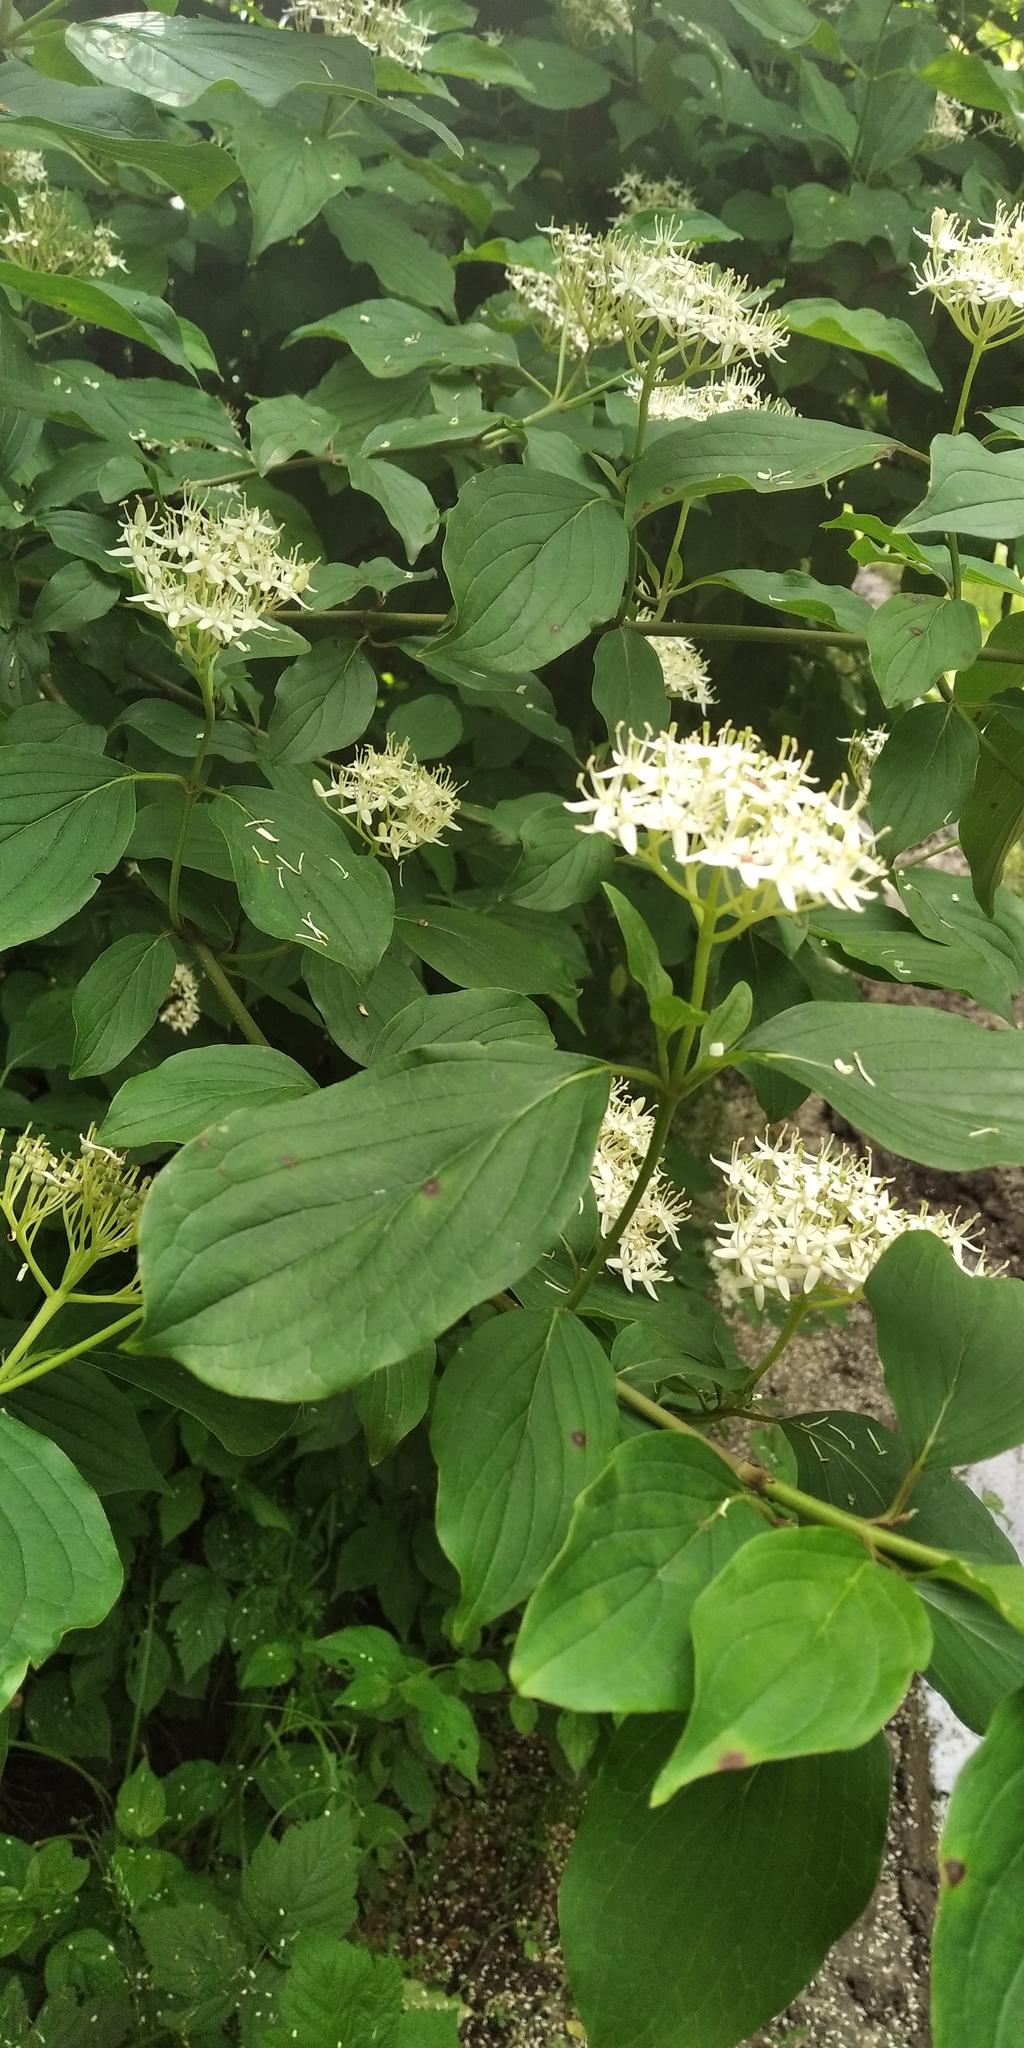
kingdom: Plantae
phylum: Tracheophyta
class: Magnoliopsida
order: Cornales
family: Cornaceae
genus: Cornus
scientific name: Cornus sanguinea
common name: Dogwood
